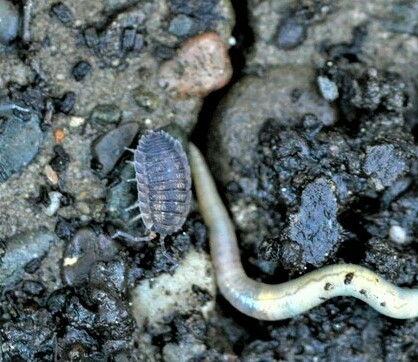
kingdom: Animalia
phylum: Arthropoda
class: Malacostraca
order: Isopoda
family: Porcellionidae
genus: Porcellio
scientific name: Porcellio scaber
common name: Common rough woodlouse
